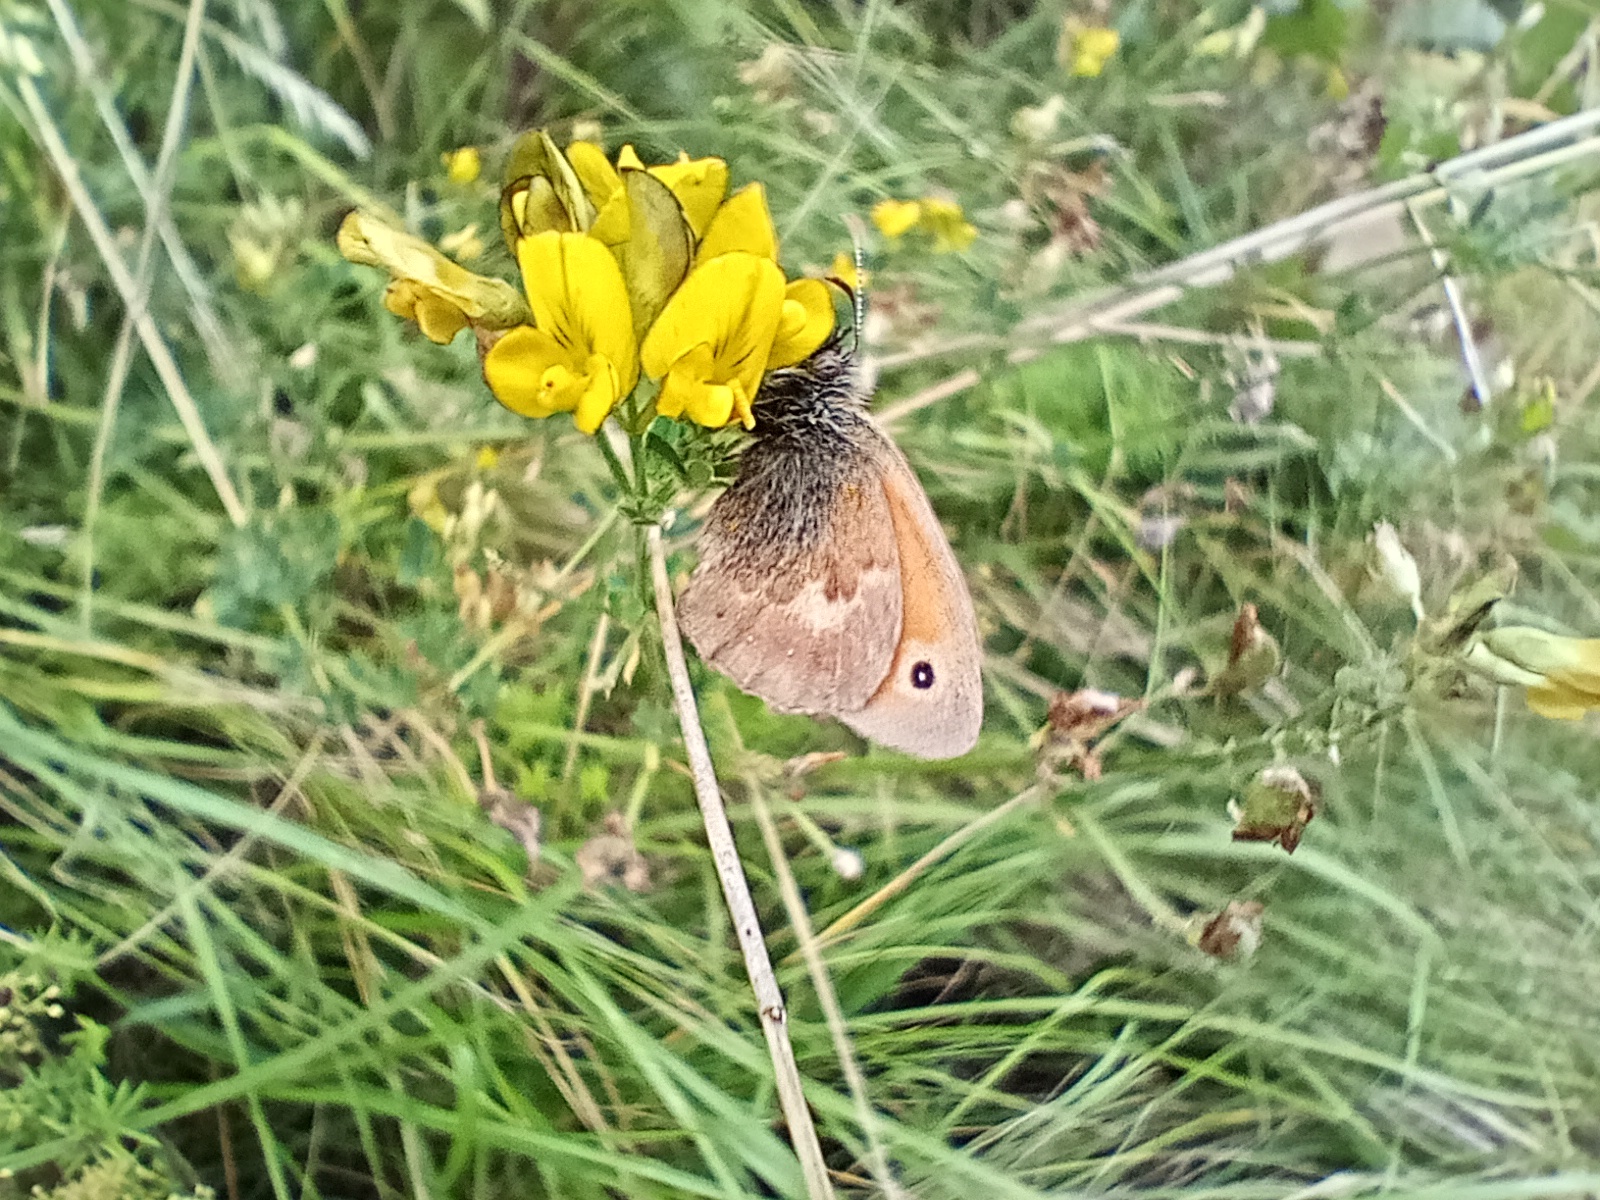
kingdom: Animalia
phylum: Arthropoda
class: Insecta
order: Lepidoptera
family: Nymphalidae
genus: Coenonympha
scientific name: Coenonympha pamphilus
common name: Small heath
